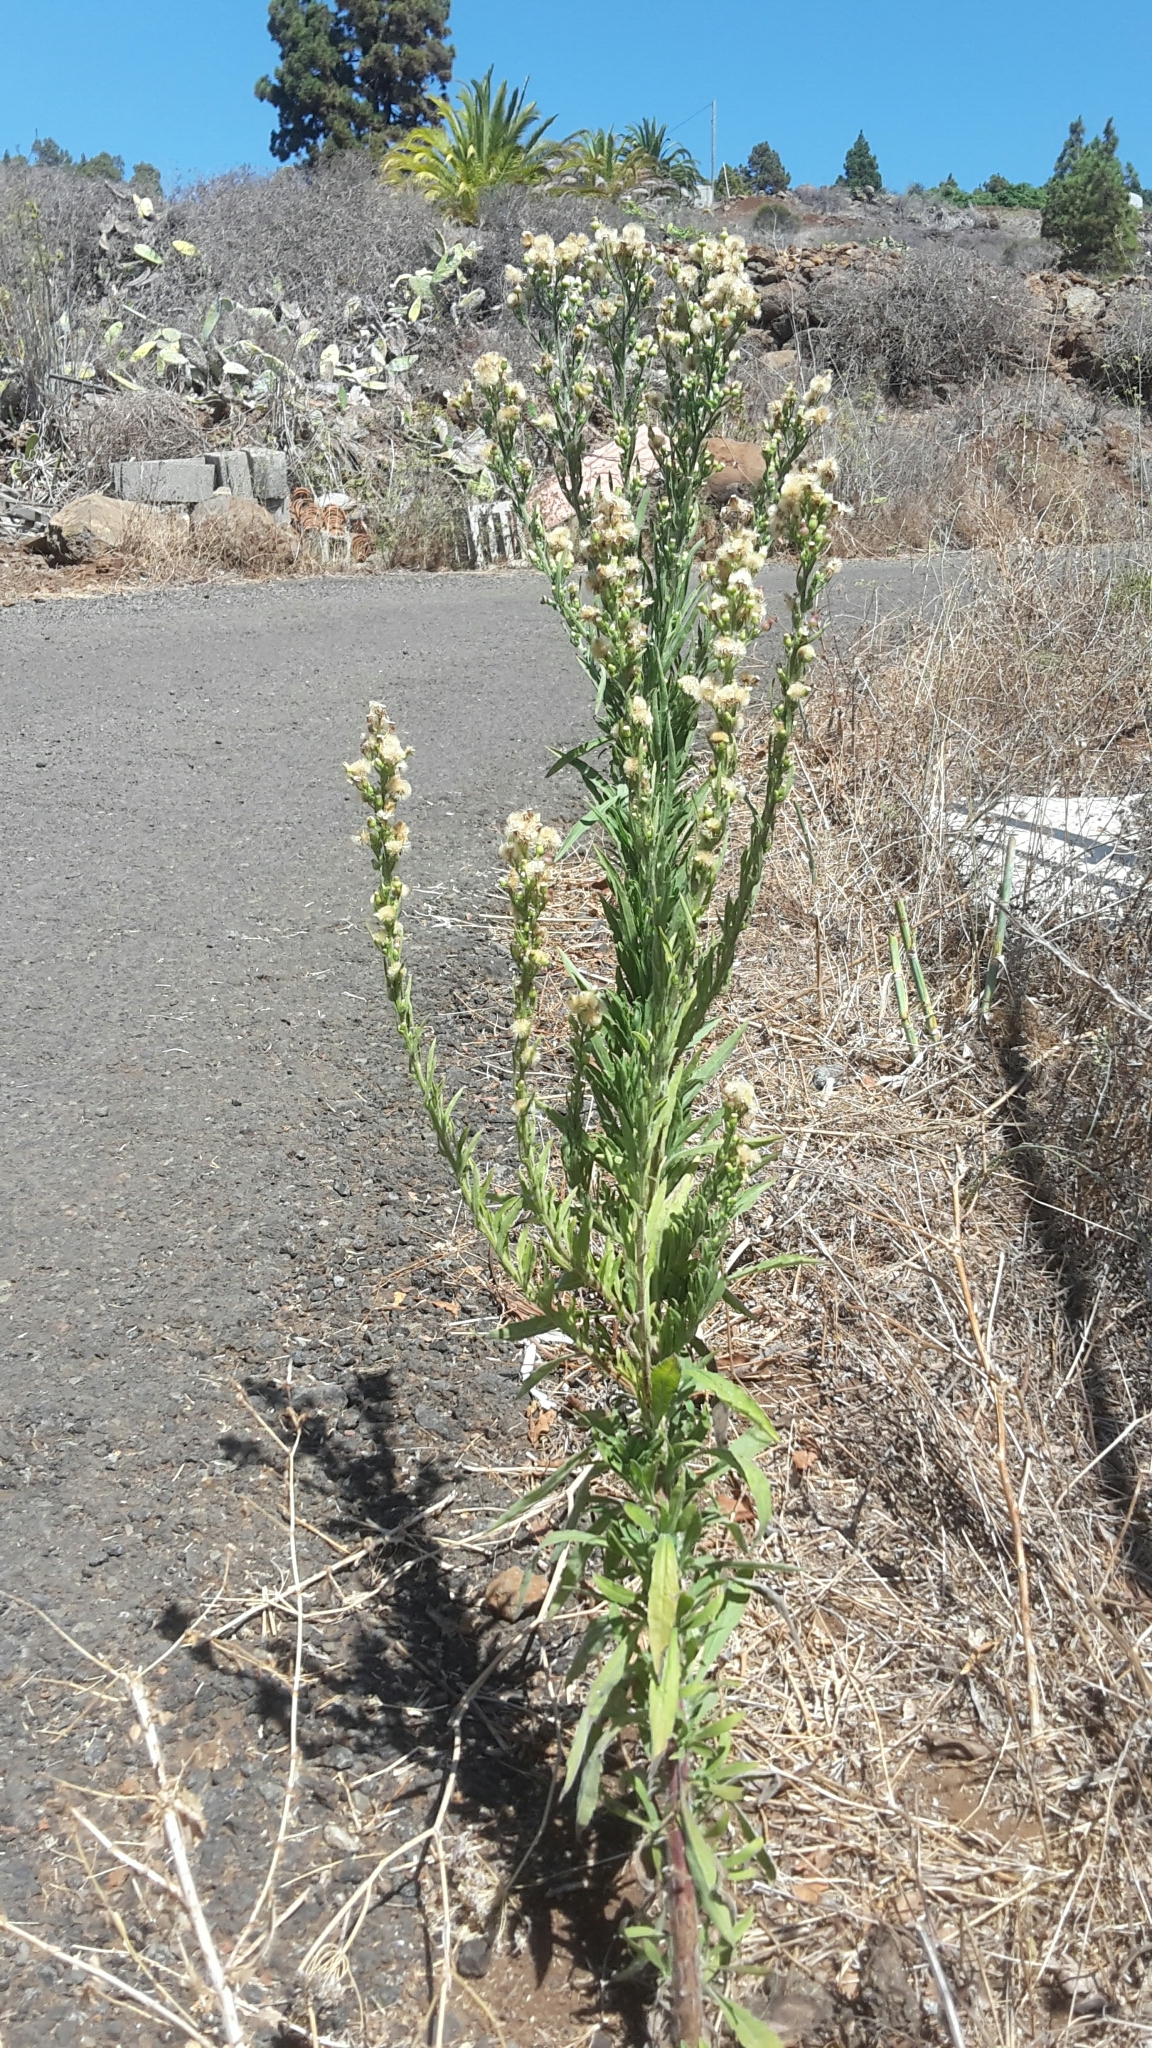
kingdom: Plantae
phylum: Tracheophyta
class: Magnoliopsida
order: Asterales
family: Asteraceae
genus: Erigeron
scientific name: Erigeron bonariensis
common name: Argentine fleabane
